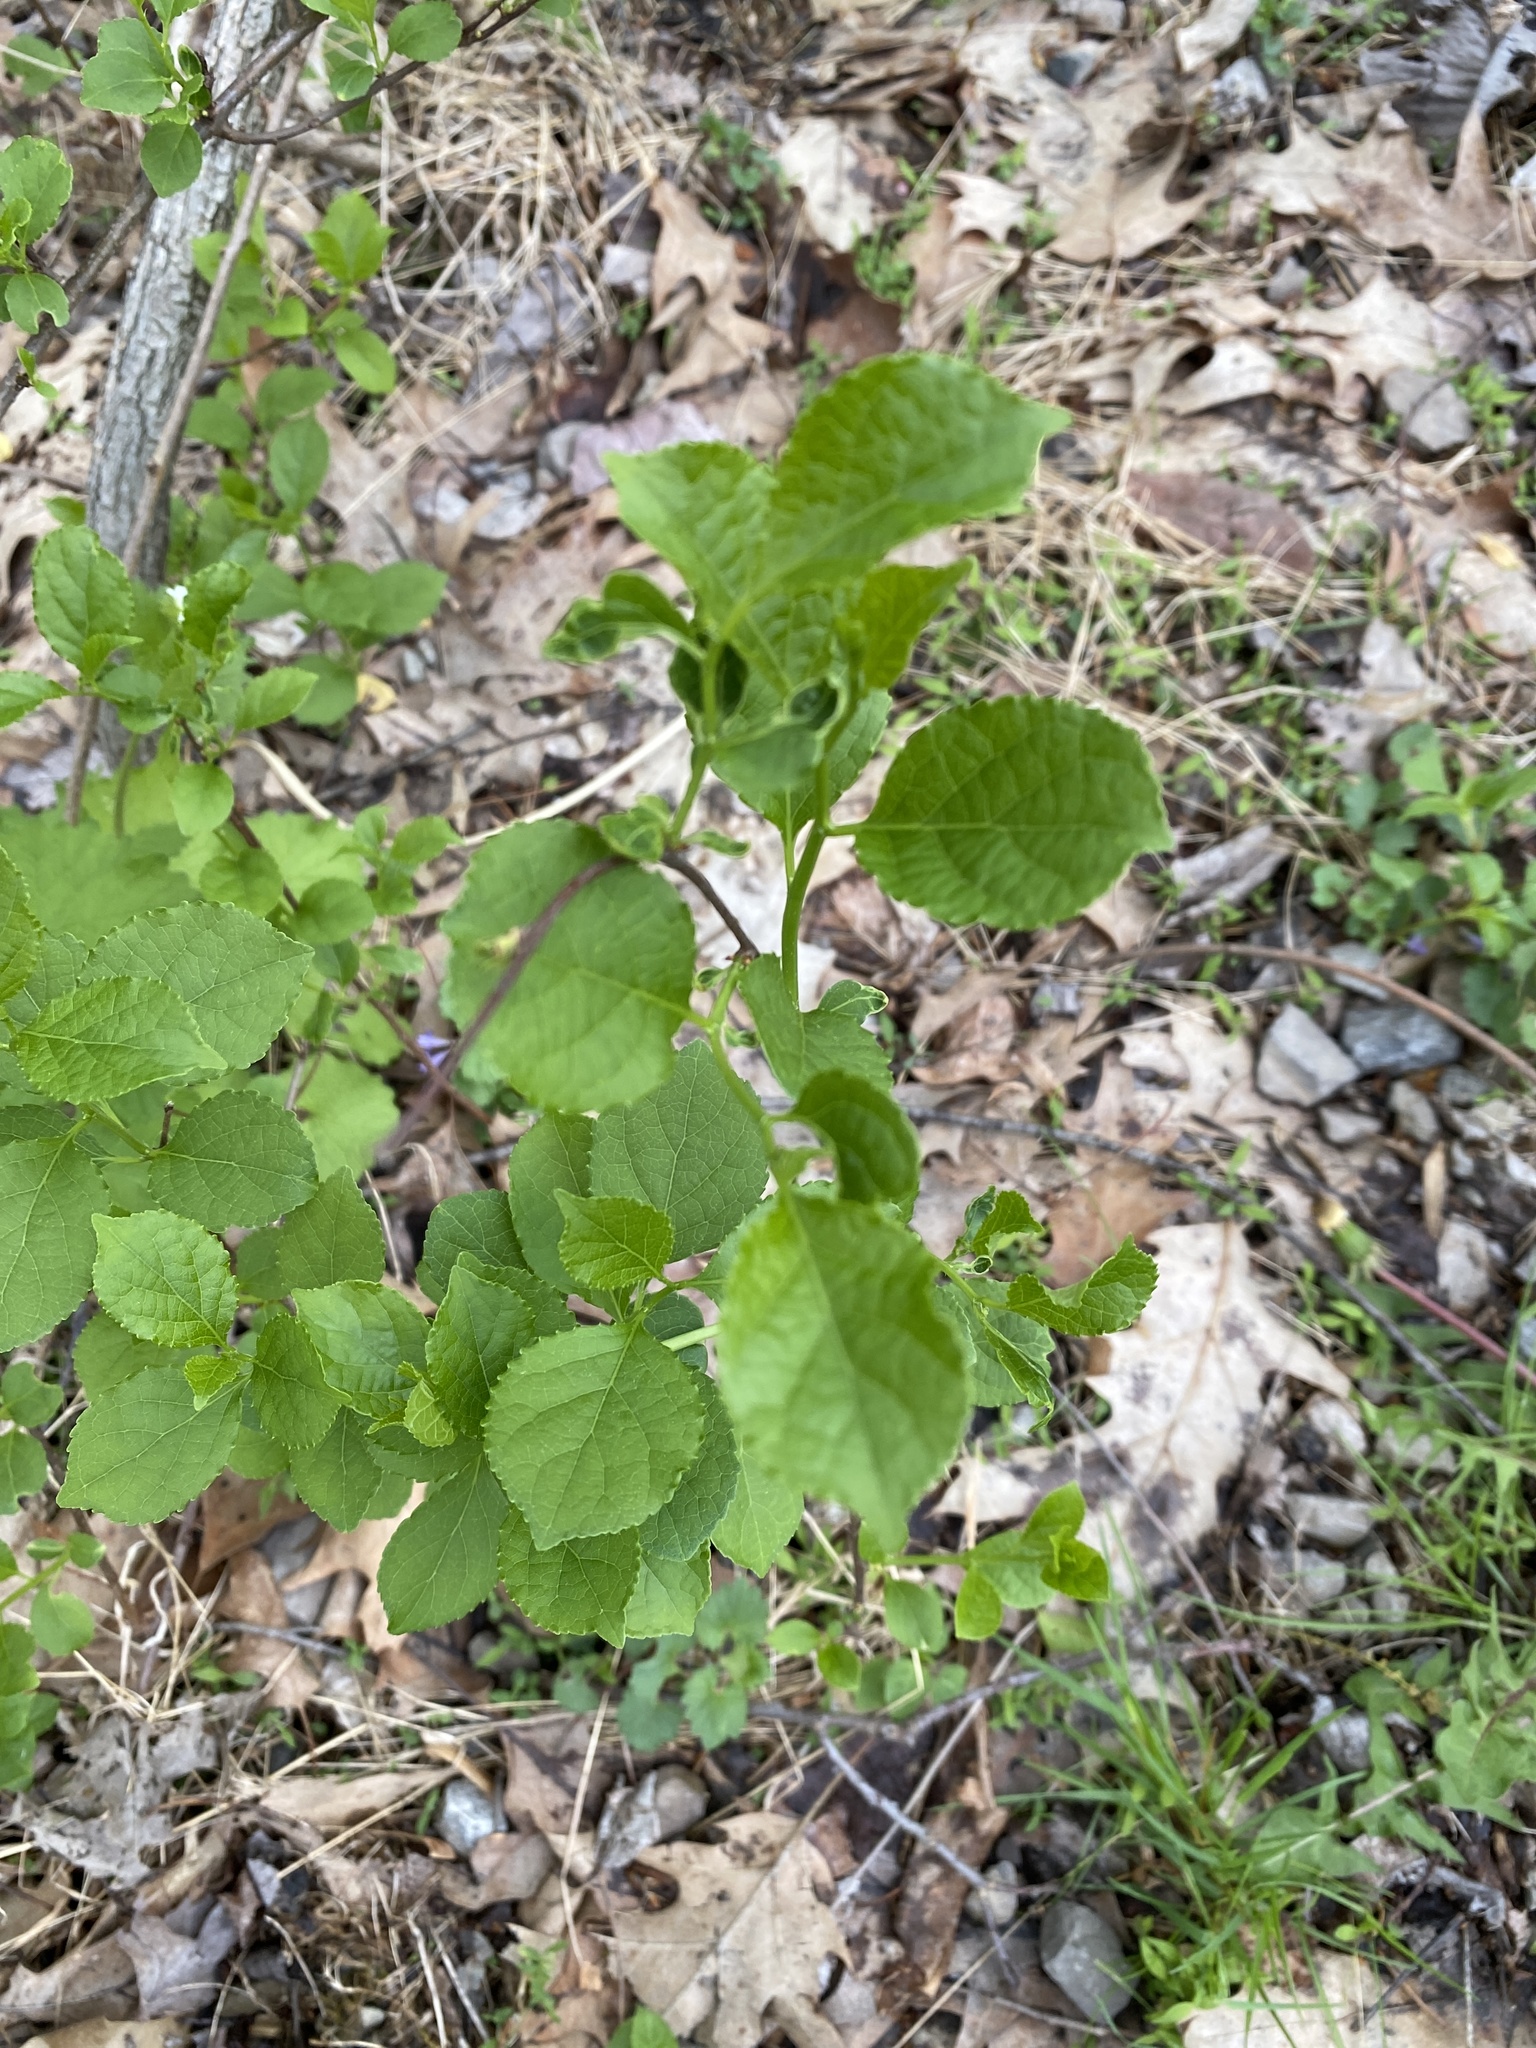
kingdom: Plantae
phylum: Tracheophyta
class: Magnoliopsida
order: Celastrales
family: Celastraceae
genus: Celastrus
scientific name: Celastrus orbiculatus
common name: Oriental bittersweet
